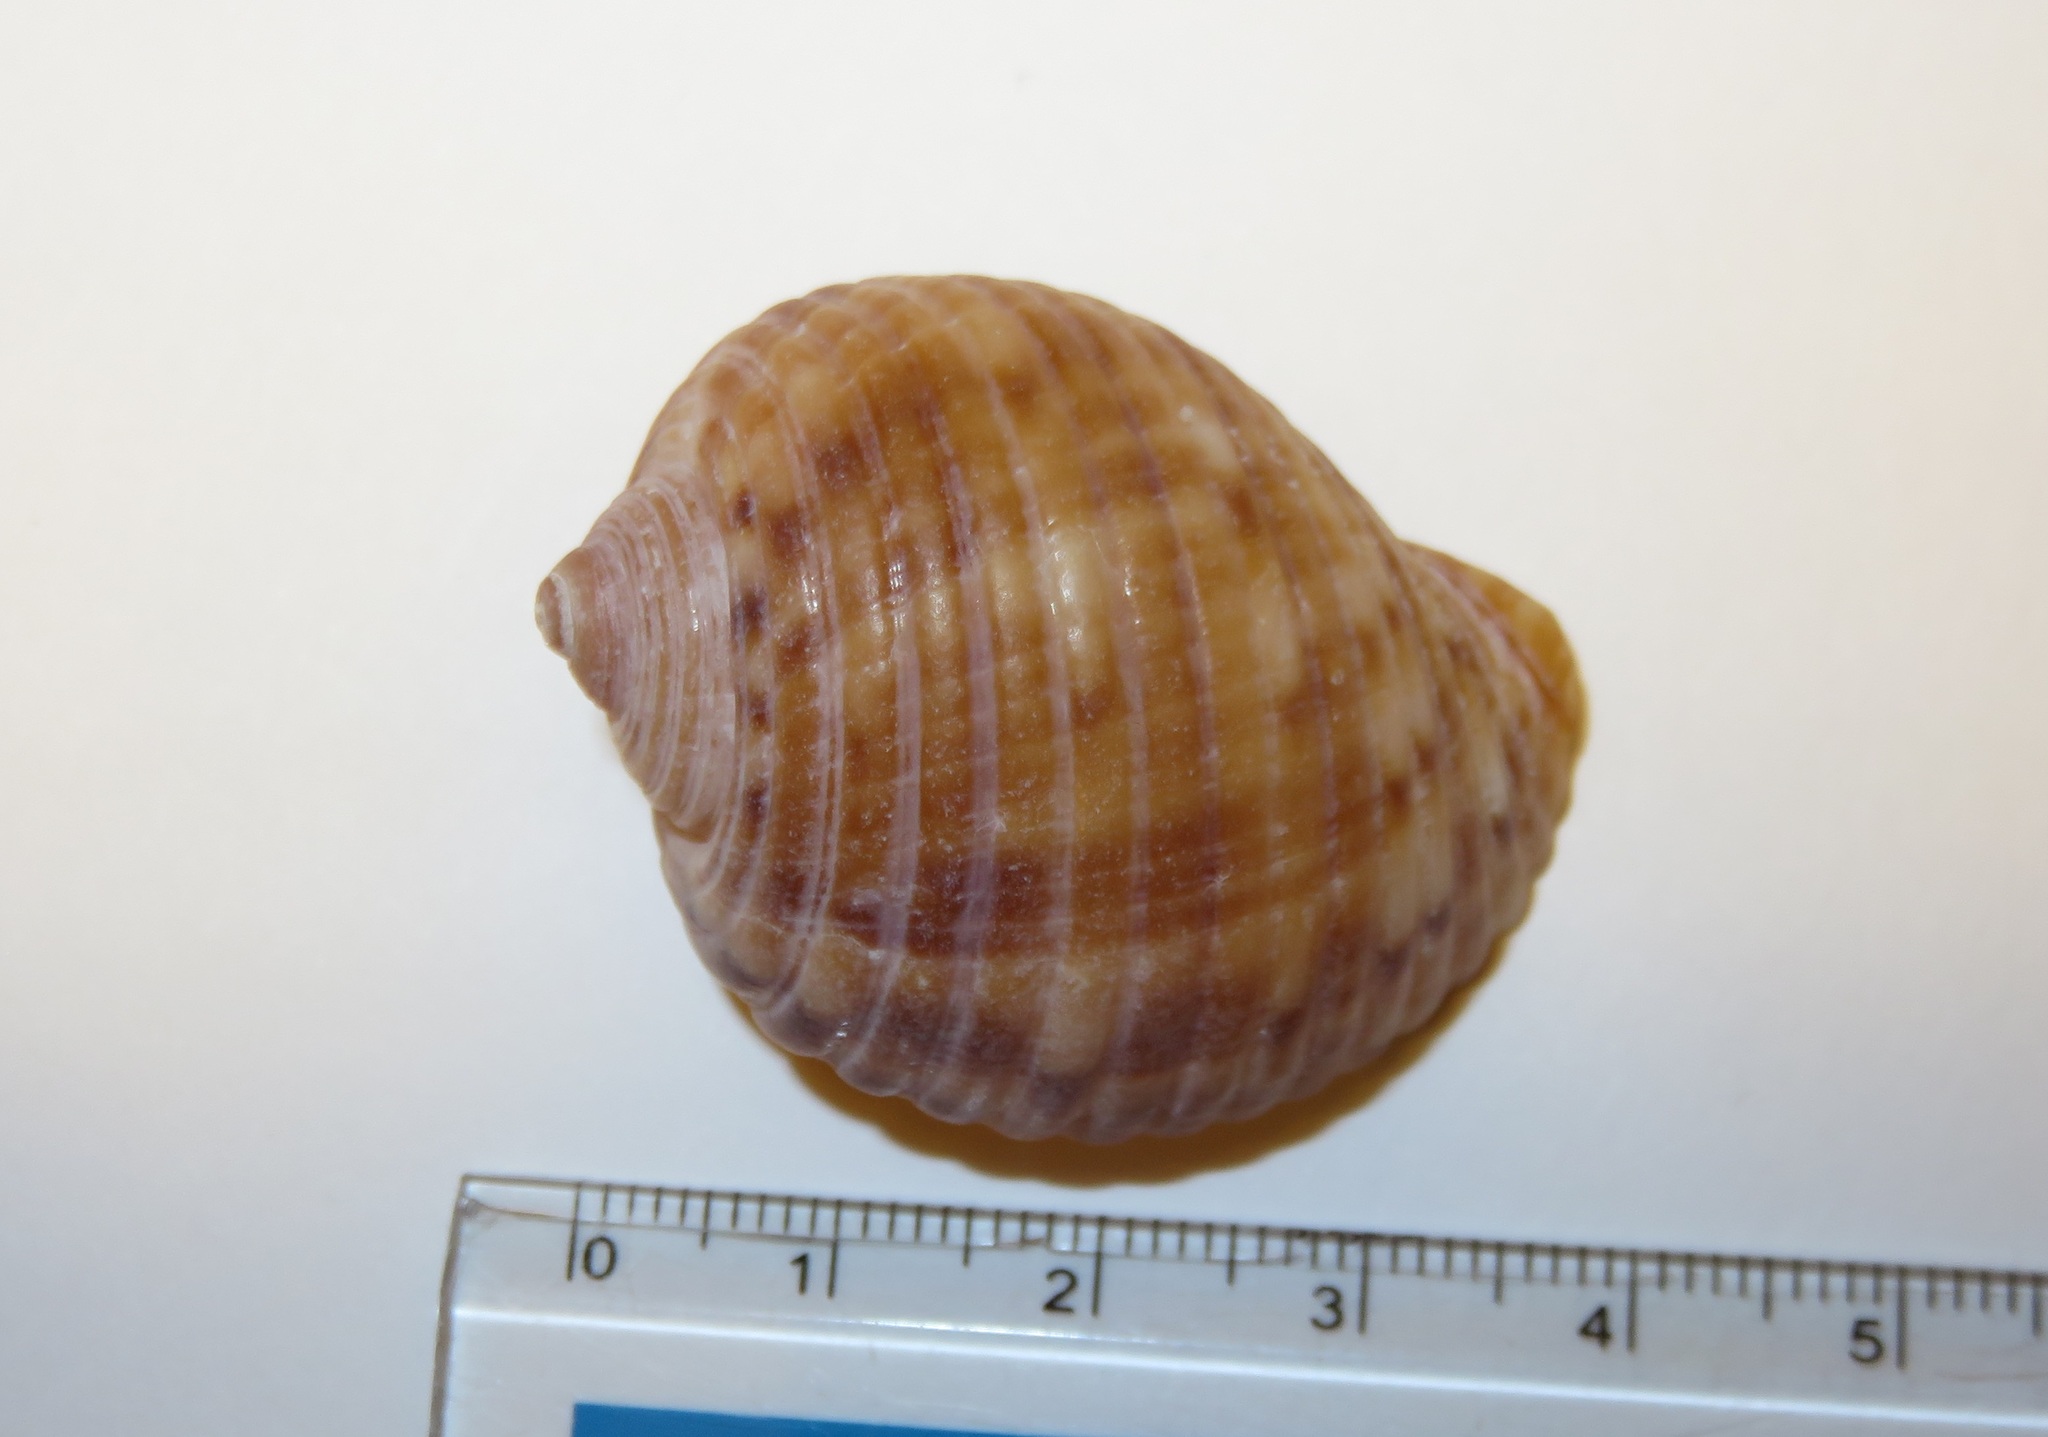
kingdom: Animalia
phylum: Mollusca
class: Gastropoda
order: Littorinimorpha
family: Tonnidae
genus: Tonna
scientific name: Tonna luteostoma
